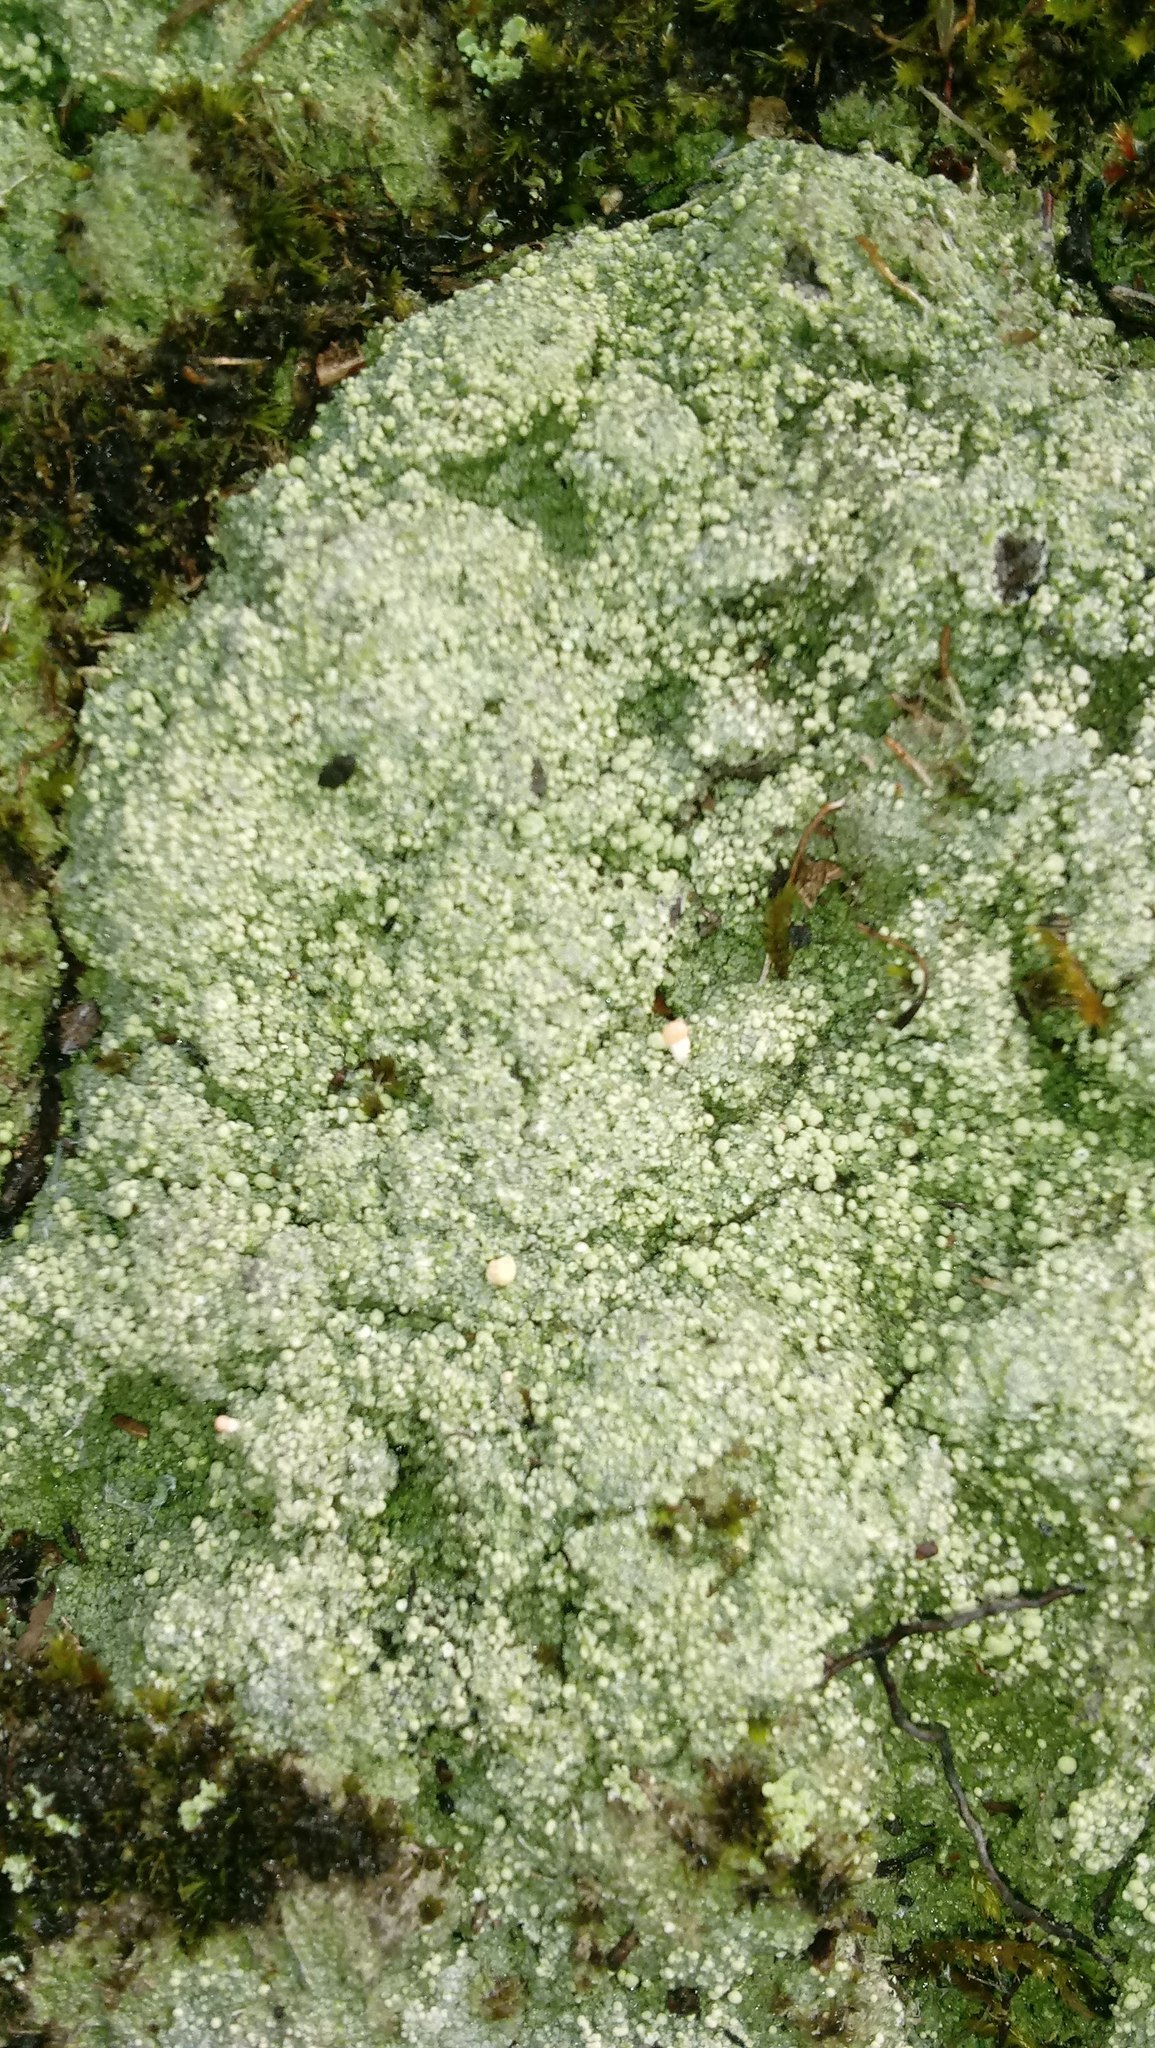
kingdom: Fungi
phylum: Ascomycota
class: Lecanoromycetes
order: Pertusariales
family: Icmadophilaceae
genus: Dibaeis
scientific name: Dibaeis baeomyces
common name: Pink earth lichen
